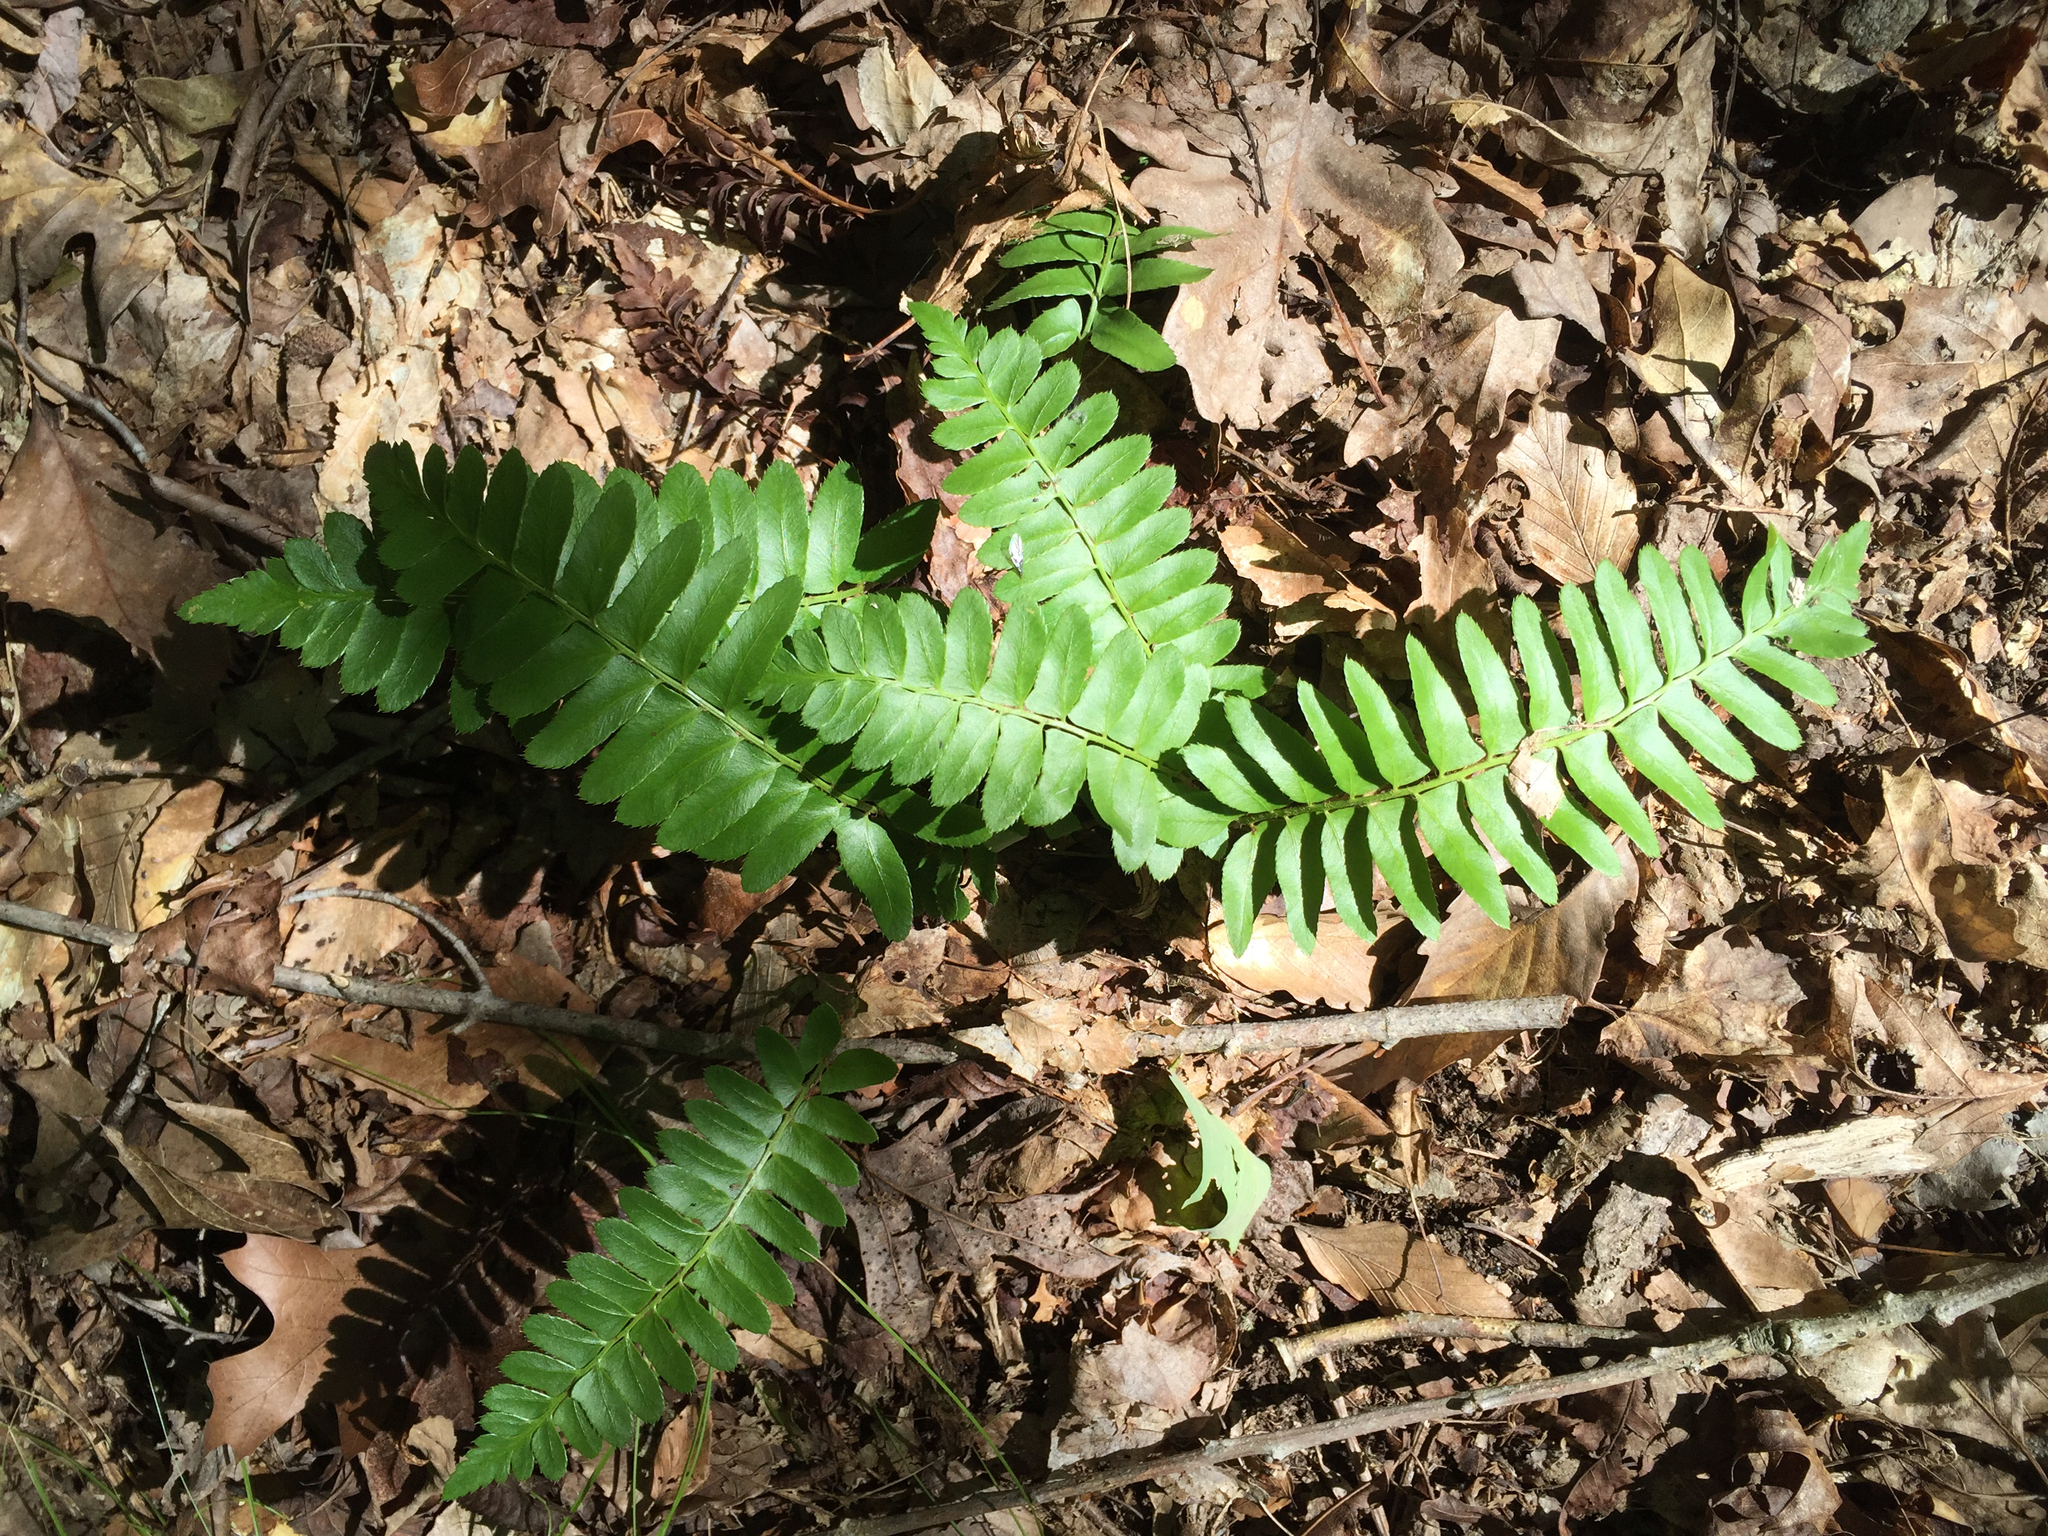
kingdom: Plantae
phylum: Tracheophyta
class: Polypodiopsida
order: Polypodiales
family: Dryopteridaceae
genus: Polystichum
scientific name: Polystichum acrostichoides
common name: Christmas fern
